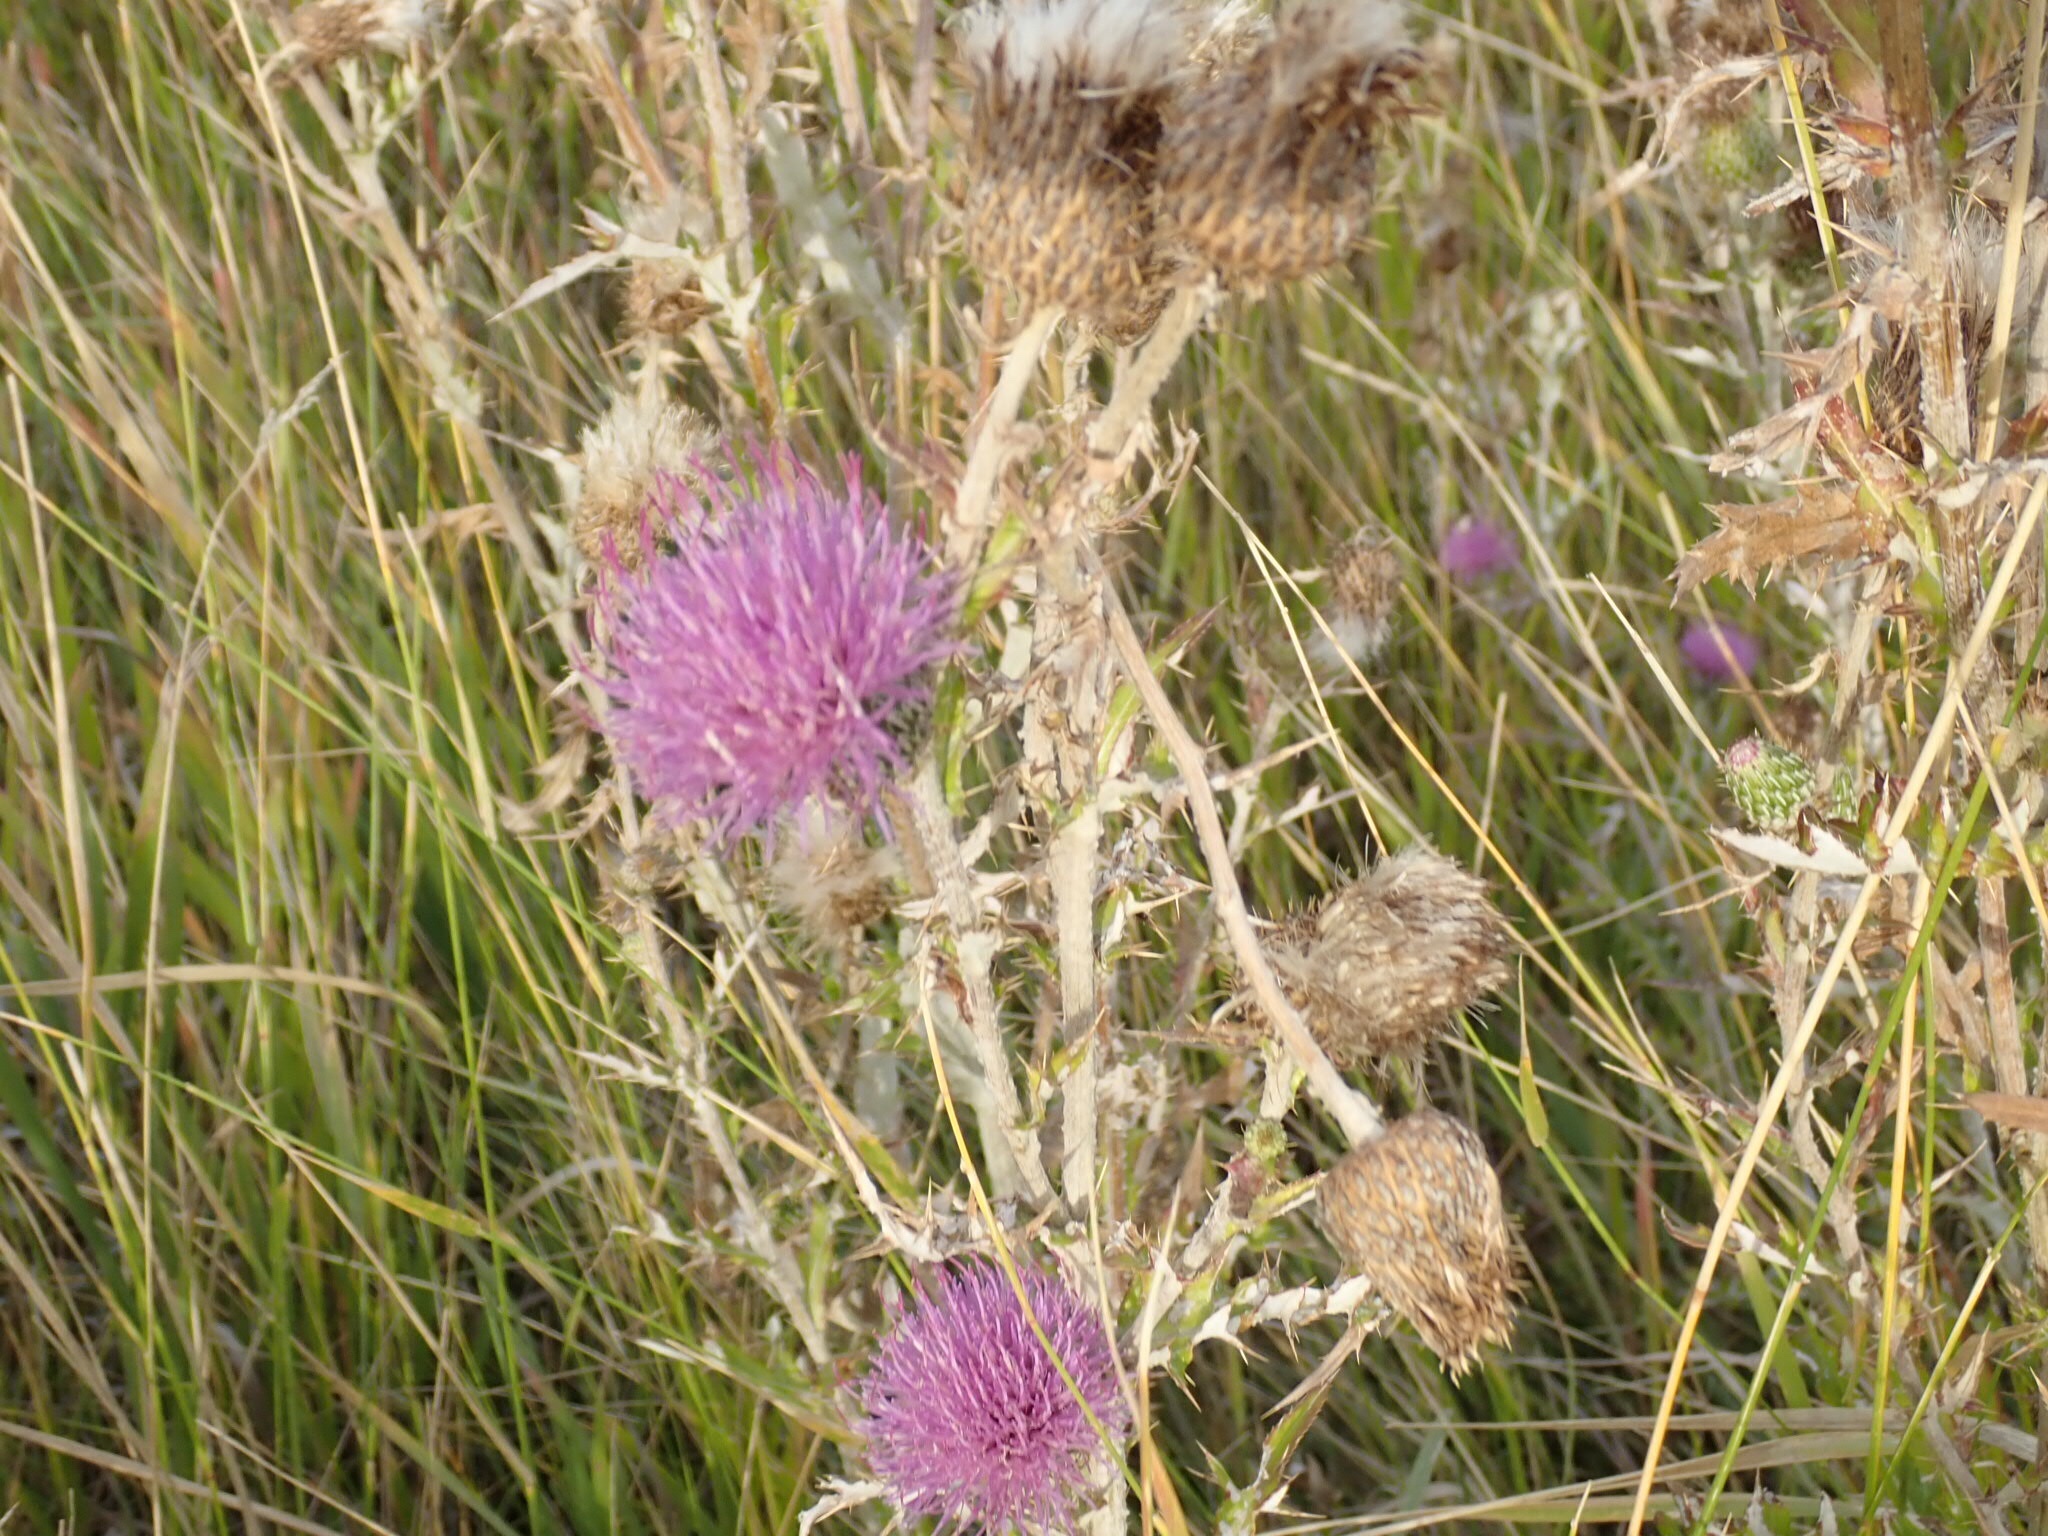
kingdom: Plantae
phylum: Tracheophyta
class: Magnoliopsida
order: Asterales
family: Asteraceae
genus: Cirsium
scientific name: Cirsium flodmanii
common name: Flodman's thistle
